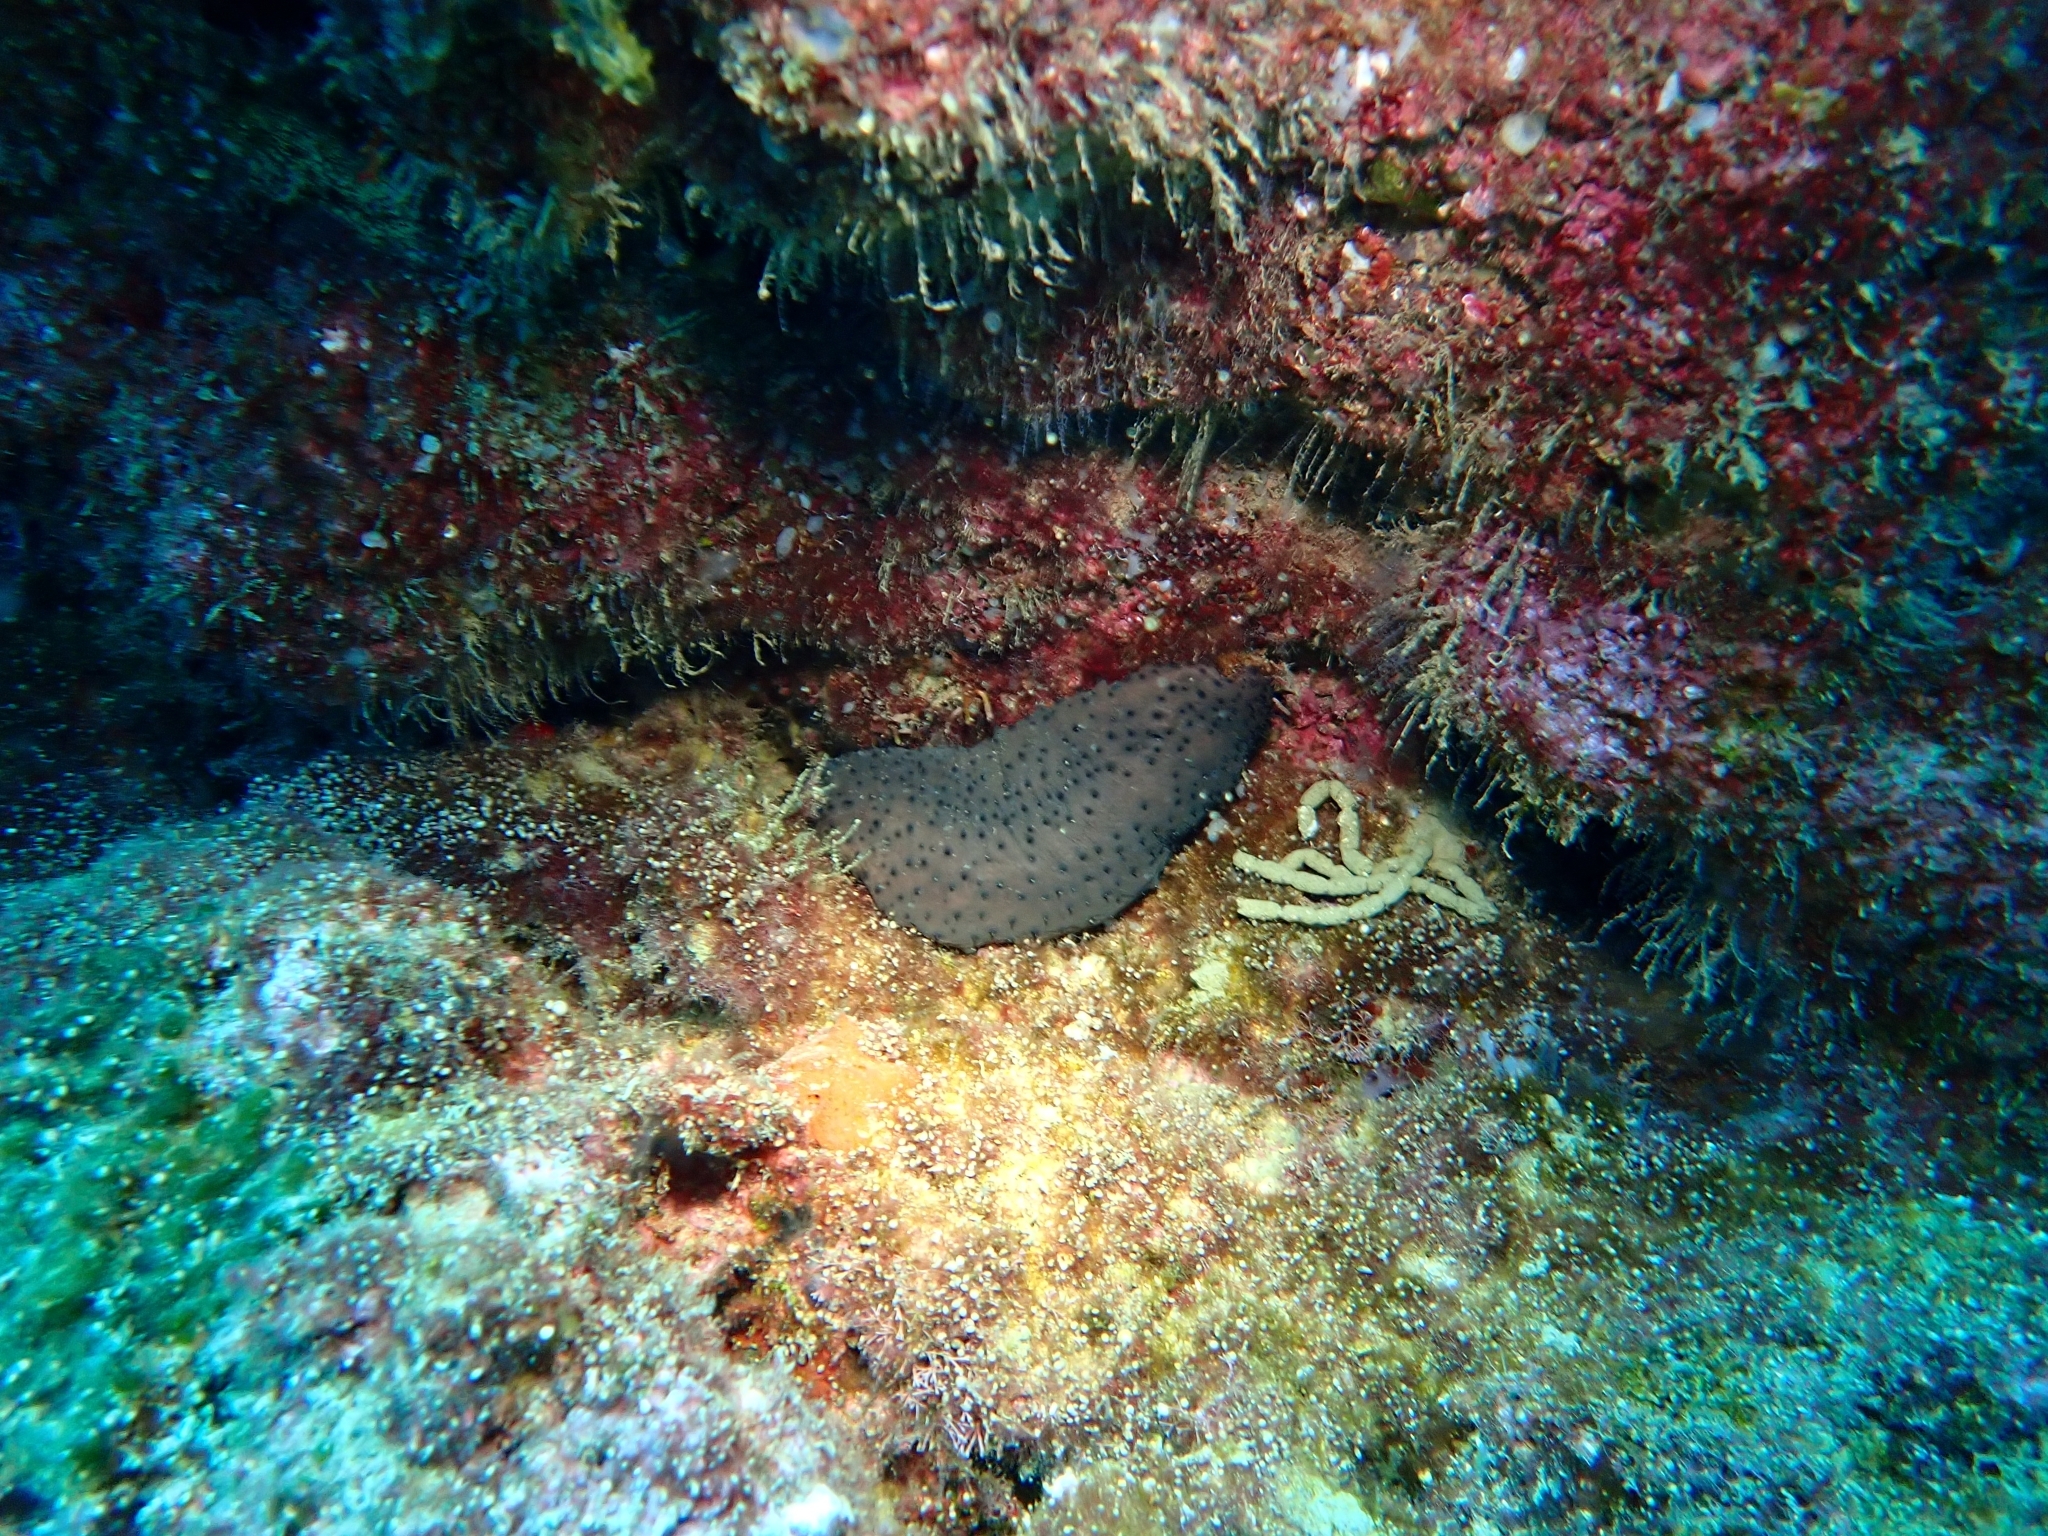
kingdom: Animalia
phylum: Echinodermata
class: Holothuroidea
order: Holothuriida
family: Holothuriidae
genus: Holothuria
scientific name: Holothuria sanctori
